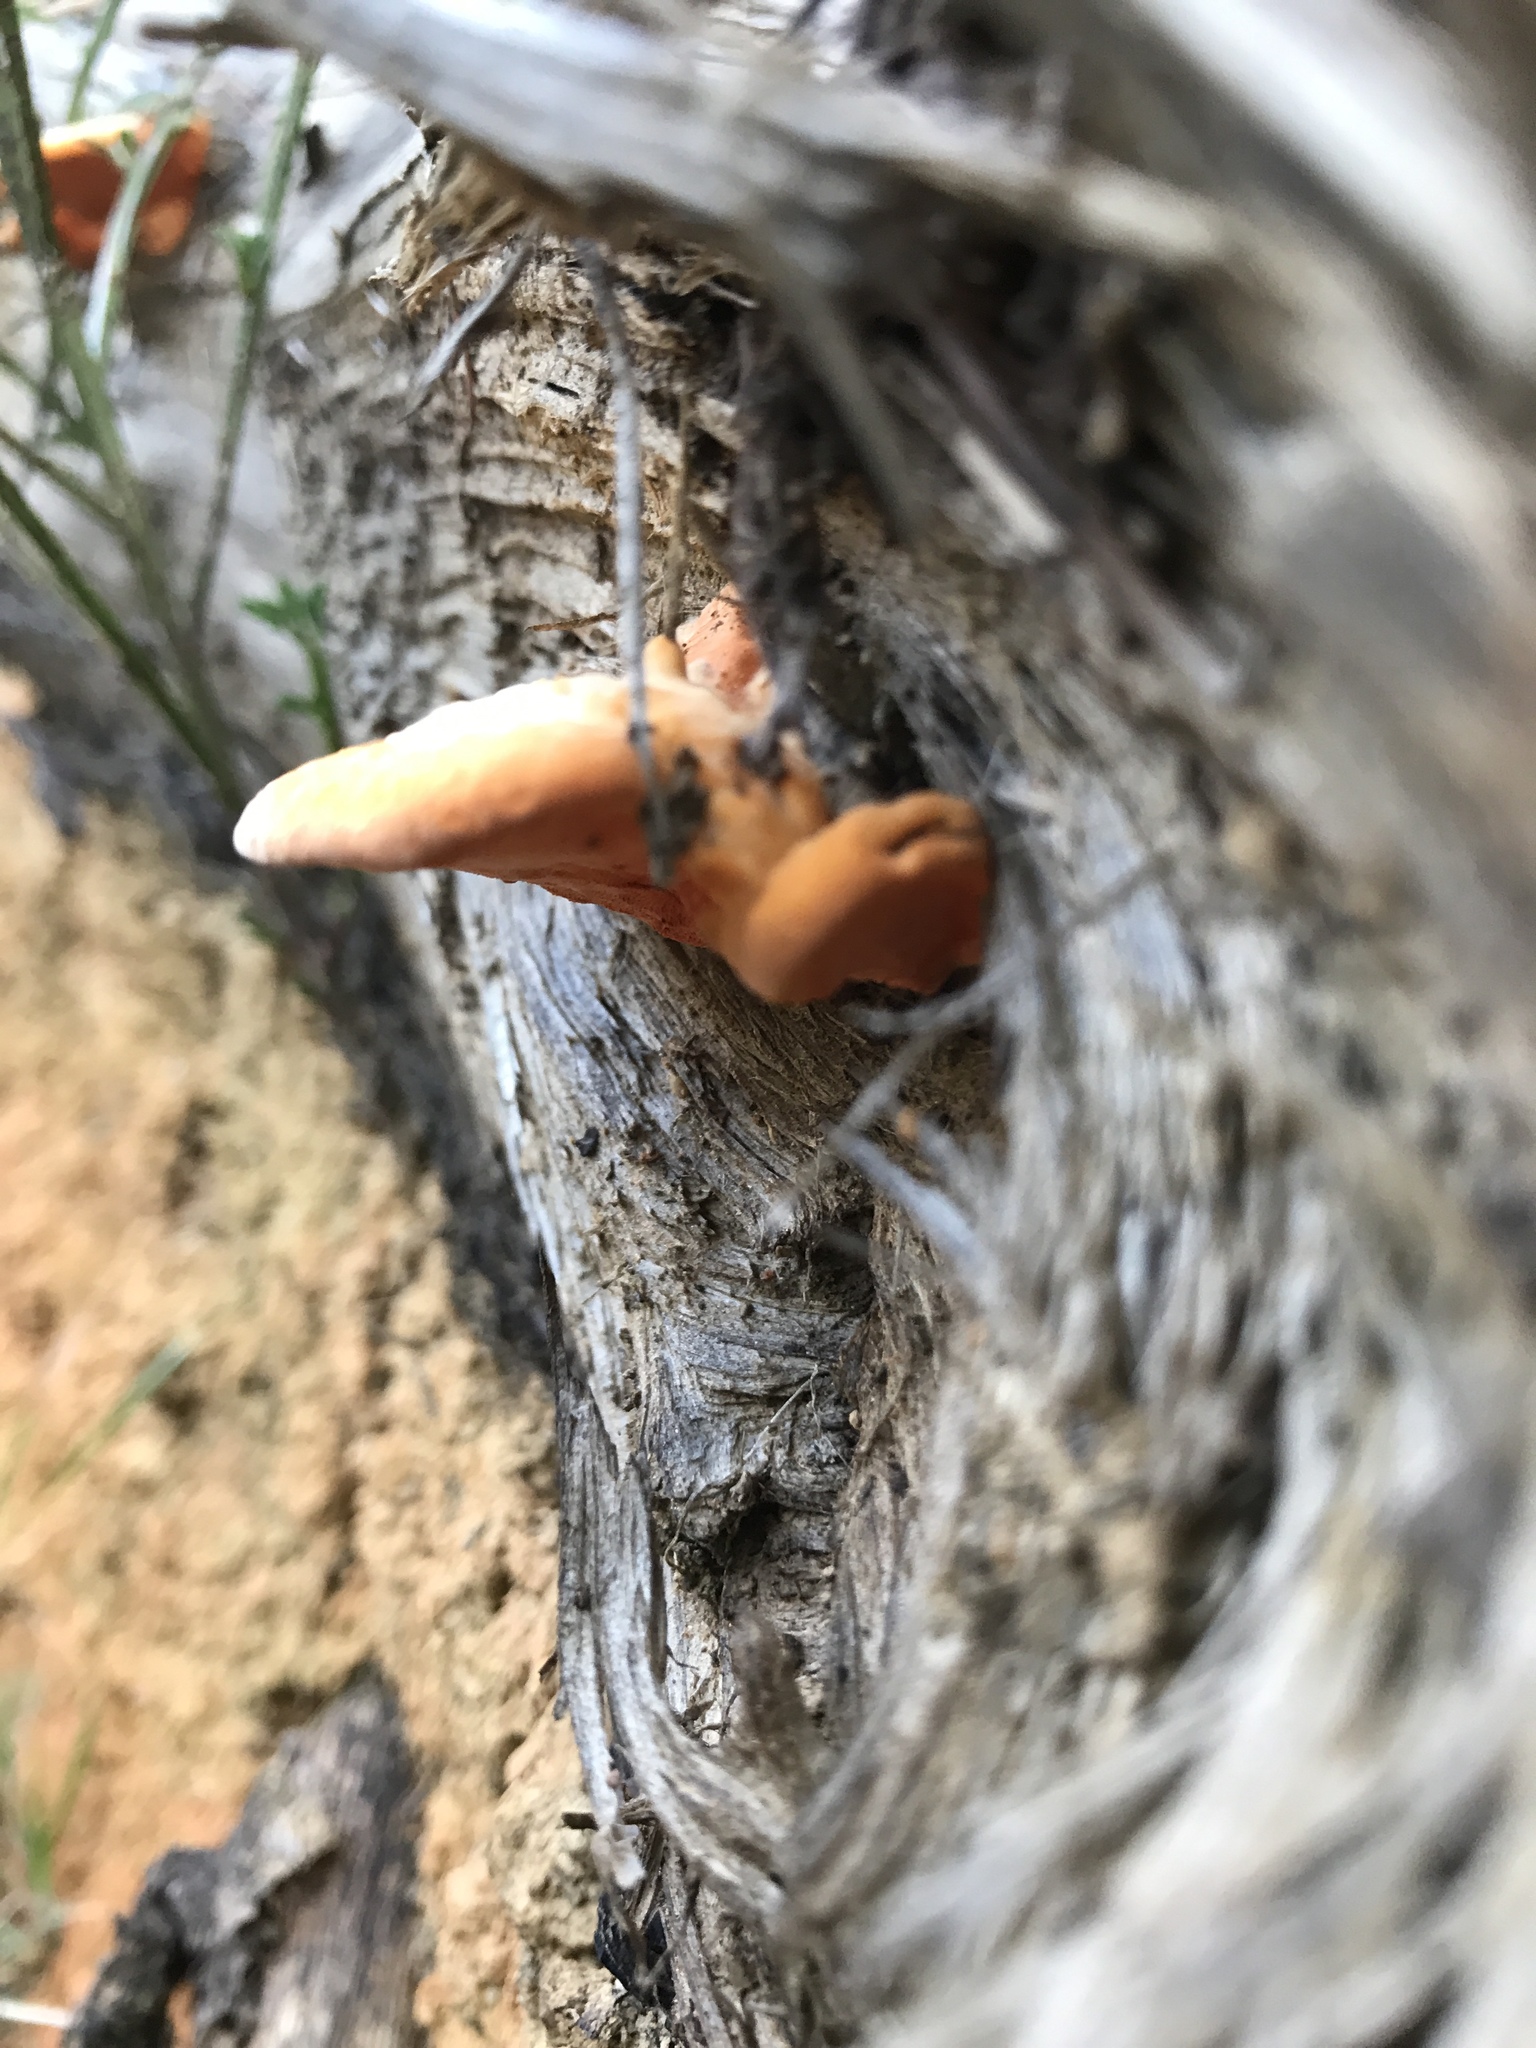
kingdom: Fungi
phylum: Basidiomycota
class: Agaricomycetes
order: Polyporales
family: Polyporaceae
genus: Trametes
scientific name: Trametes coccinea
